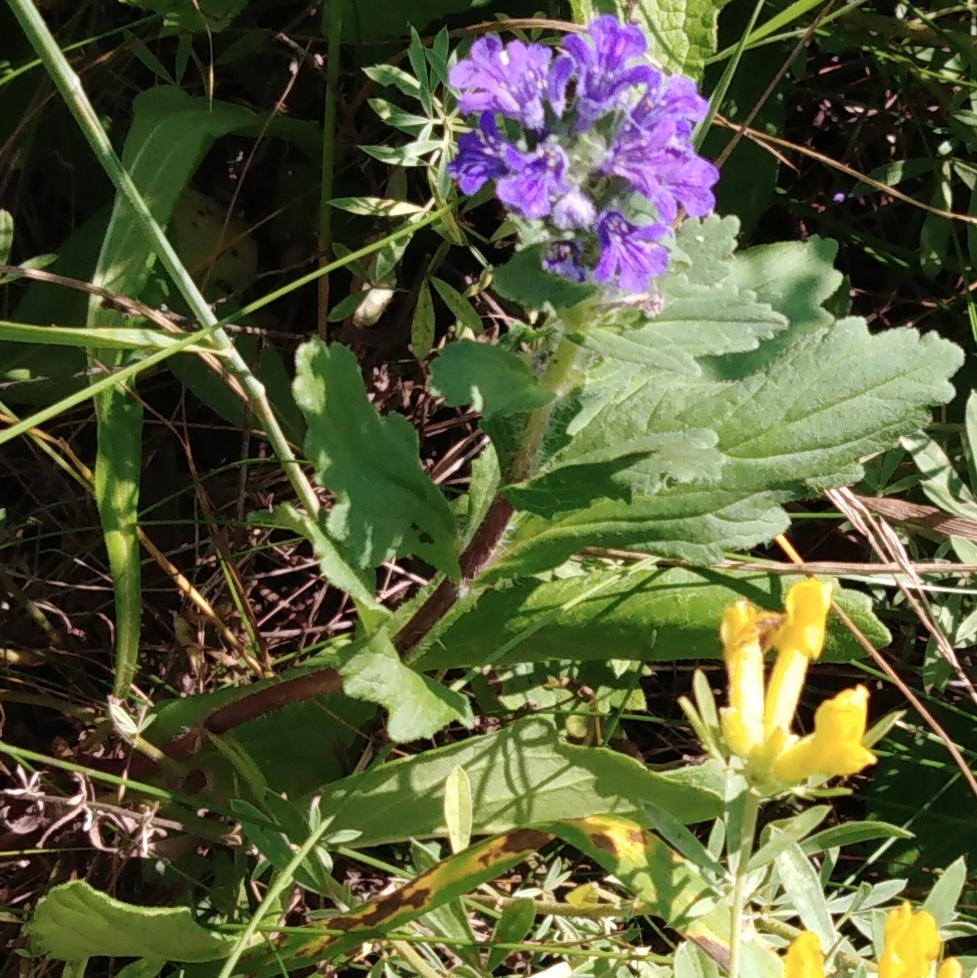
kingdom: Plantae
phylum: Tracheophyta
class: Magnoliopsida
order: Lamiales
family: Lamiaceae
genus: Ajuga
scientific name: Ajuga genevensis
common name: Blue bugle
